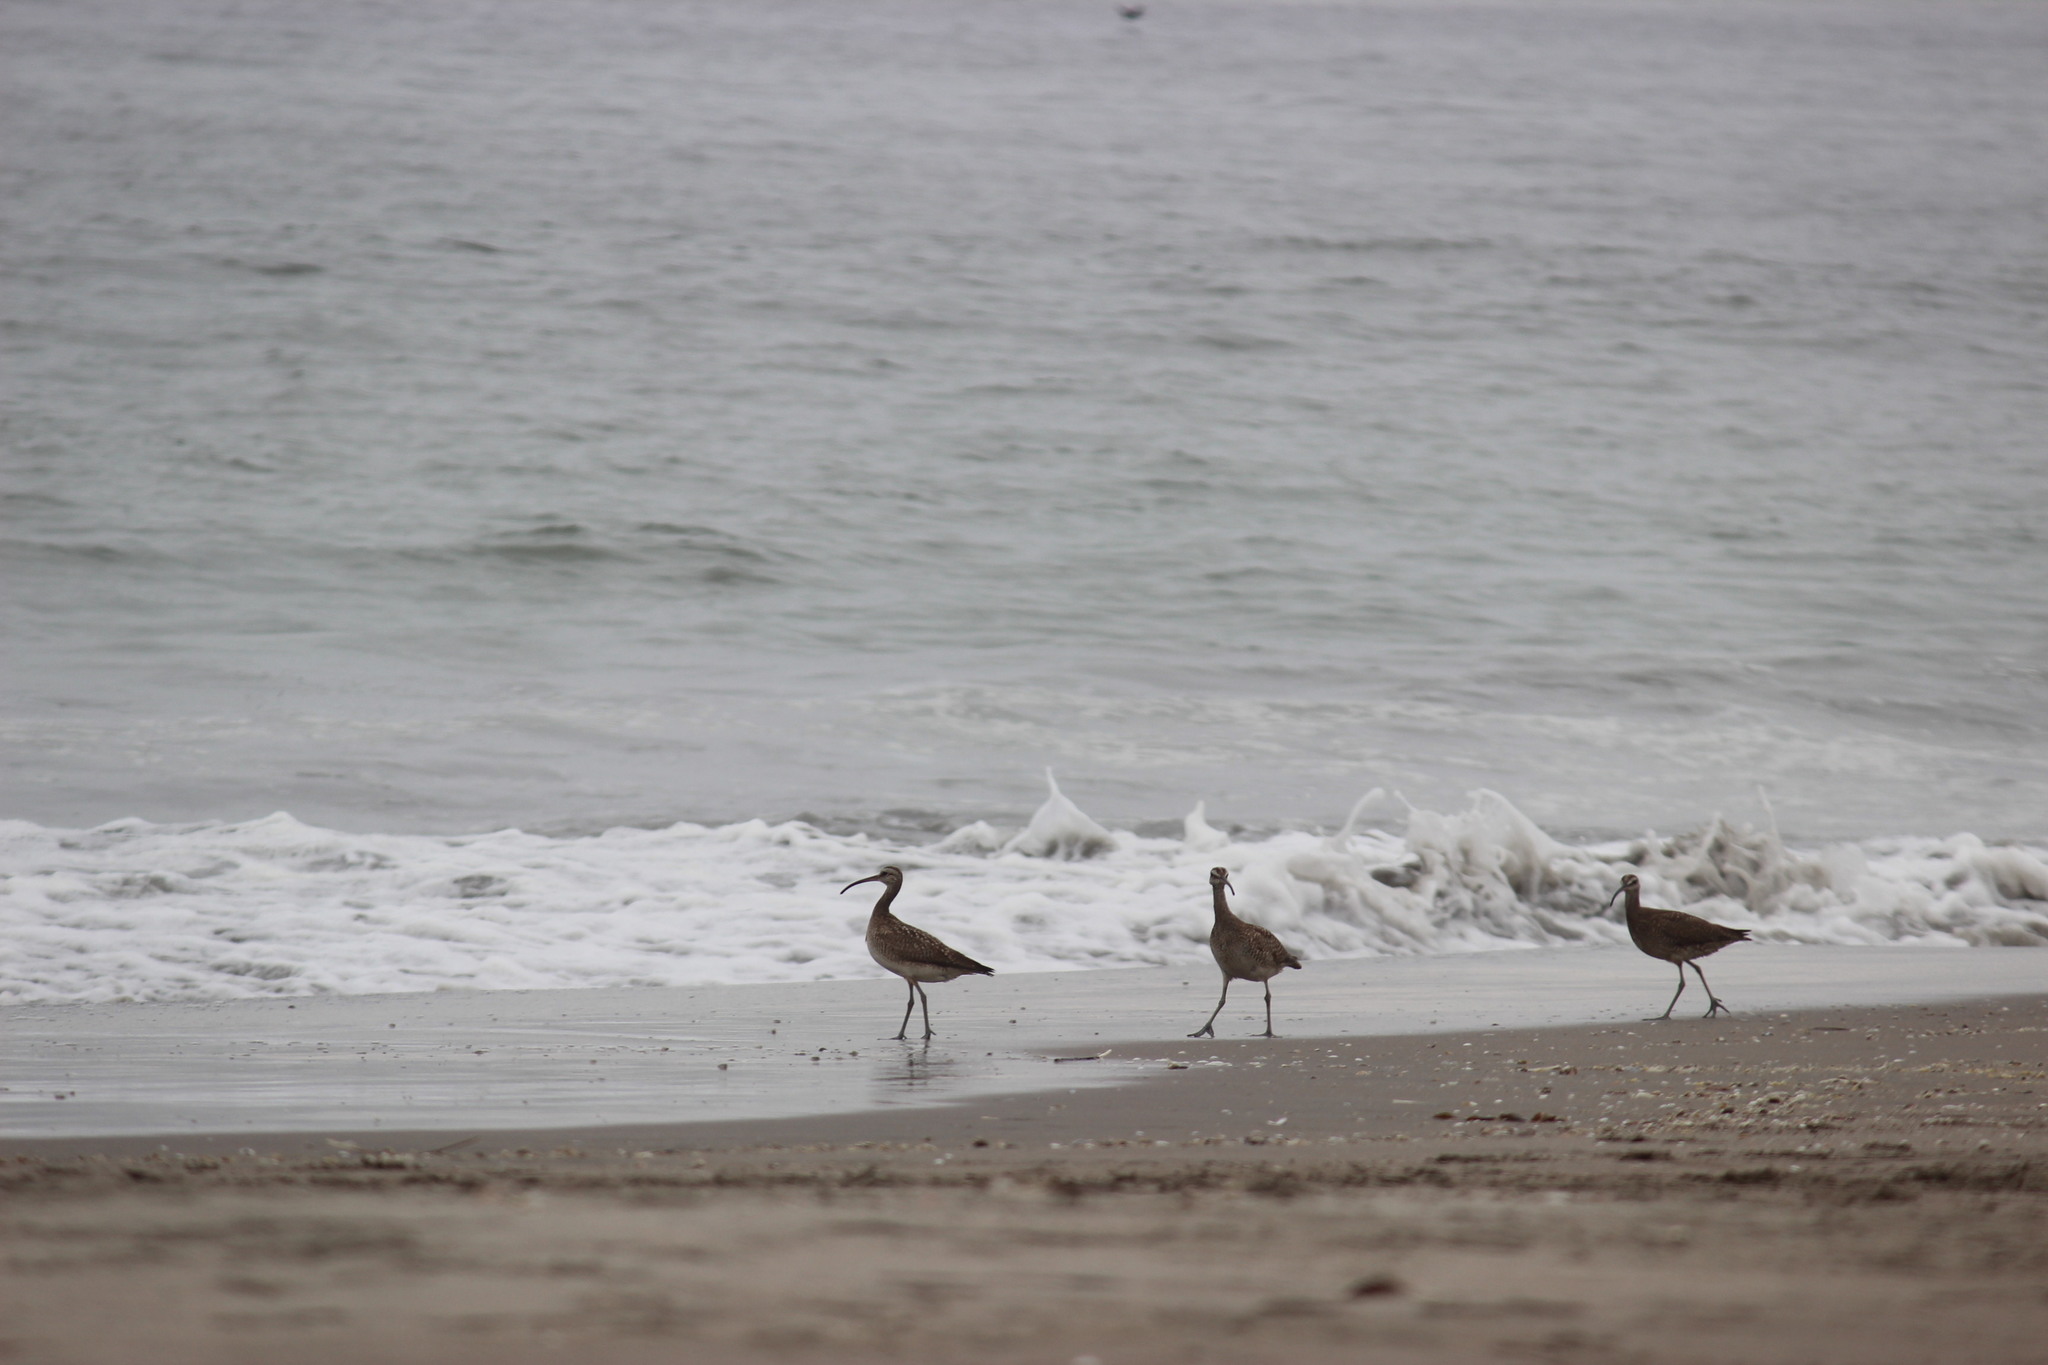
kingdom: Animalia
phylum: Chordata
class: Aves
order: Charadriiformes
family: Scolopacidae
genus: Numenius
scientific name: Numenius phaeopus
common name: Whimbrel
